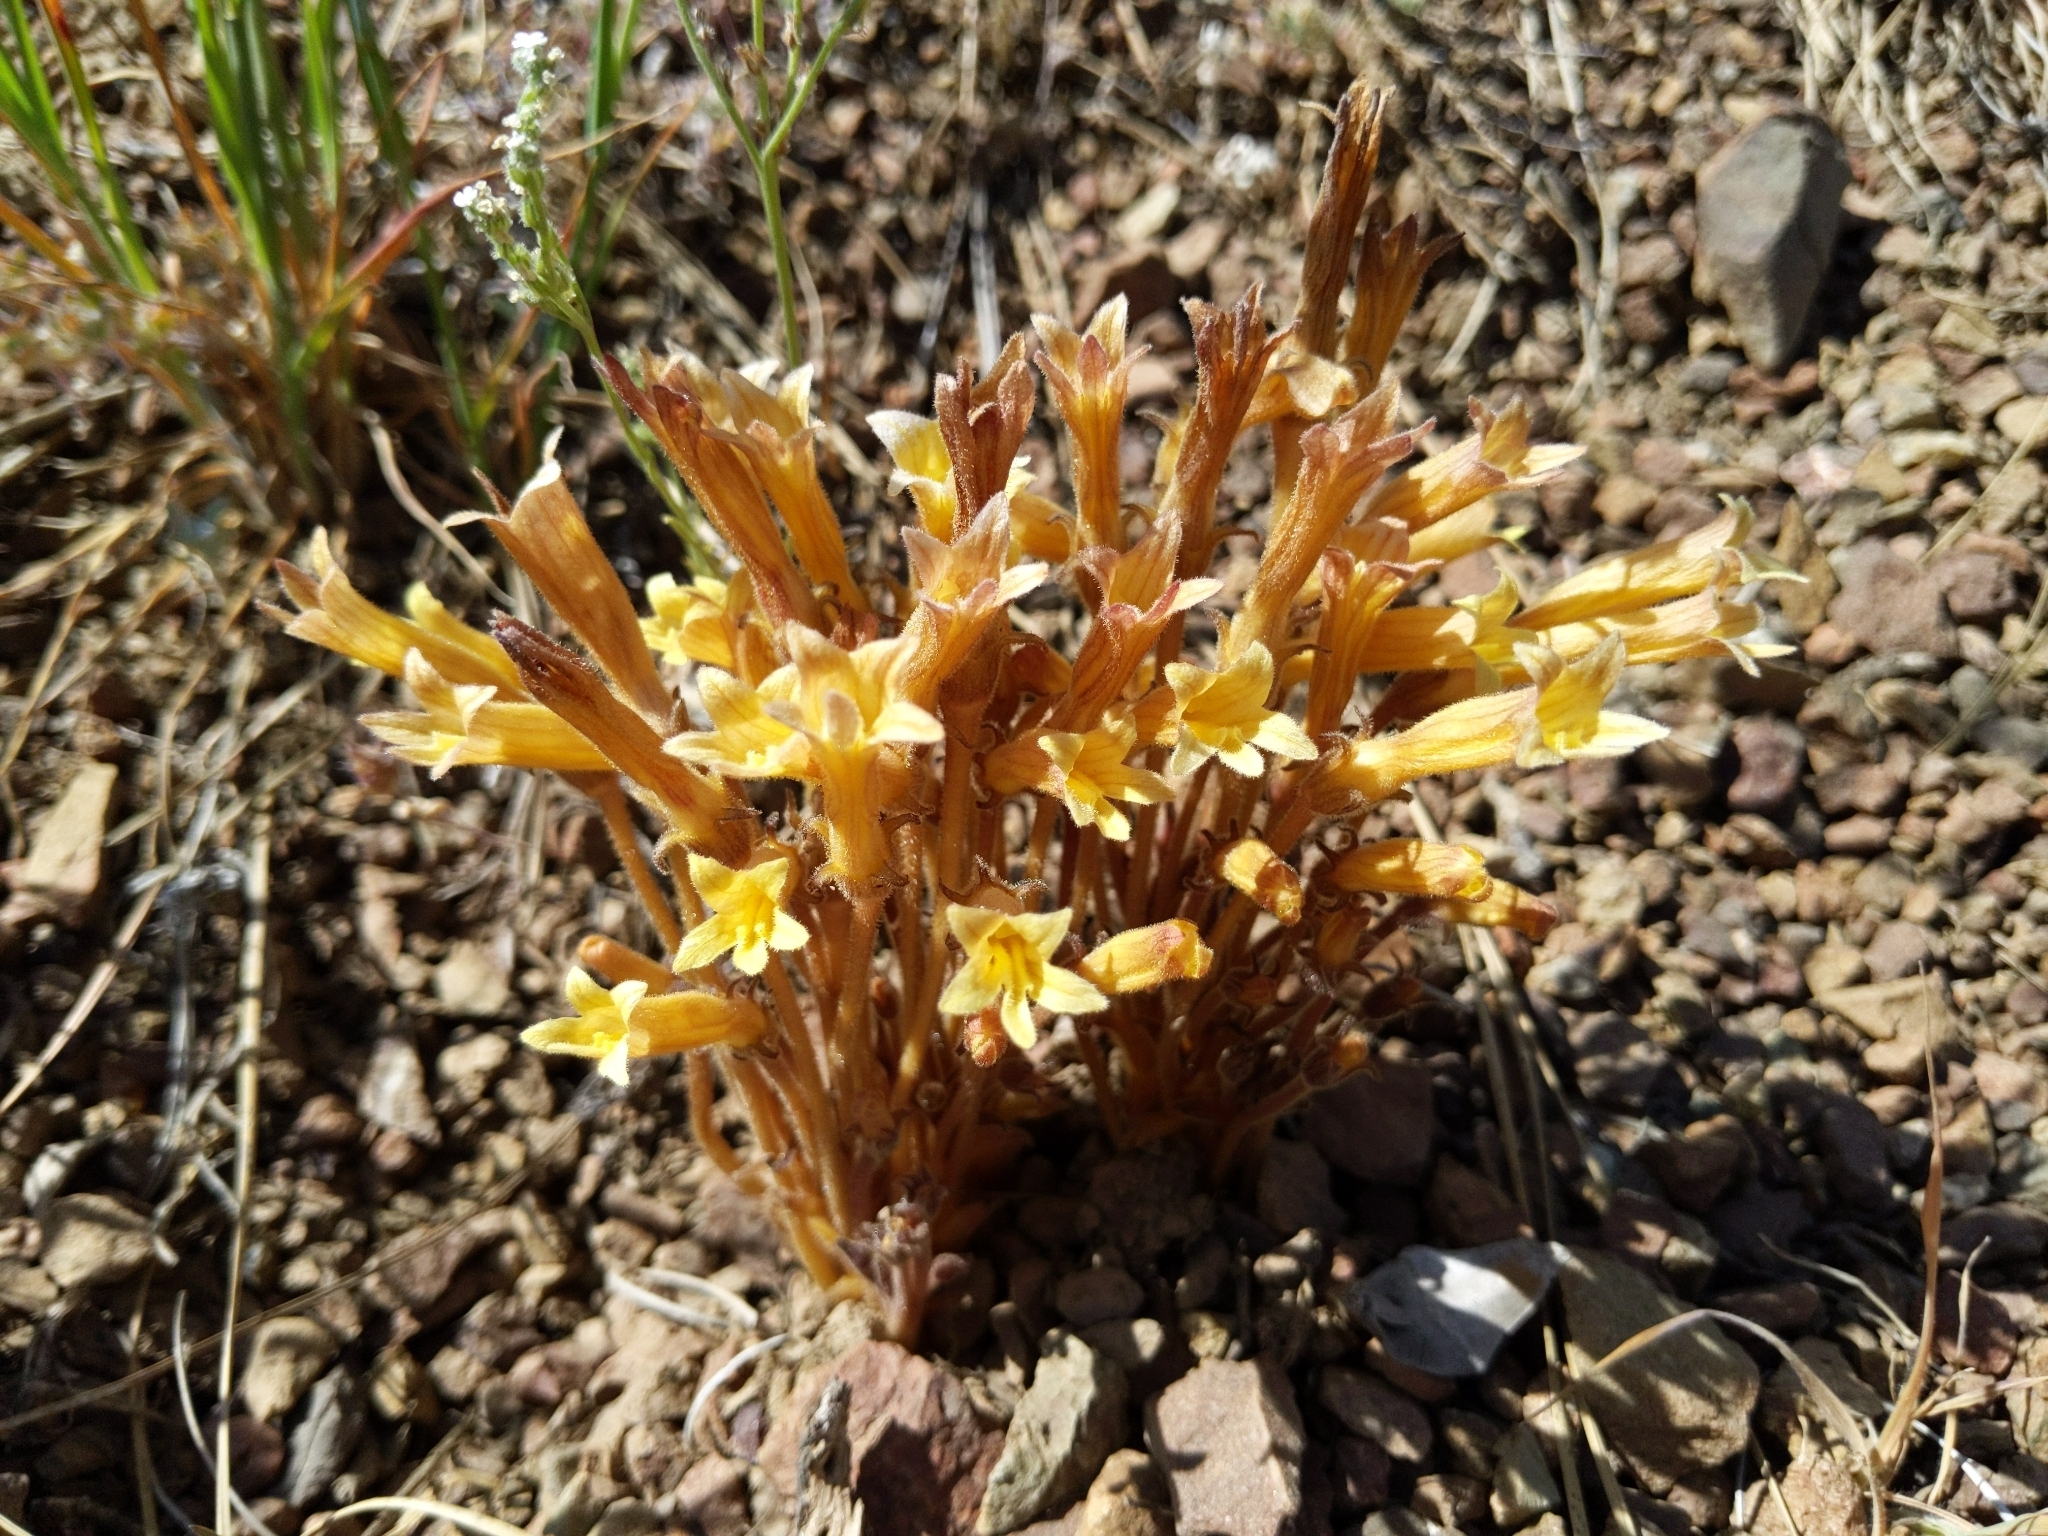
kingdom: Plantae
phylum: Tracheophyta
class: Magnoliopsida
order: Lamiales
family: Orobanchaceae
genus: Aphyllon
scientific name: Aphyllon franciscanum
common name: San francisco broomrape
